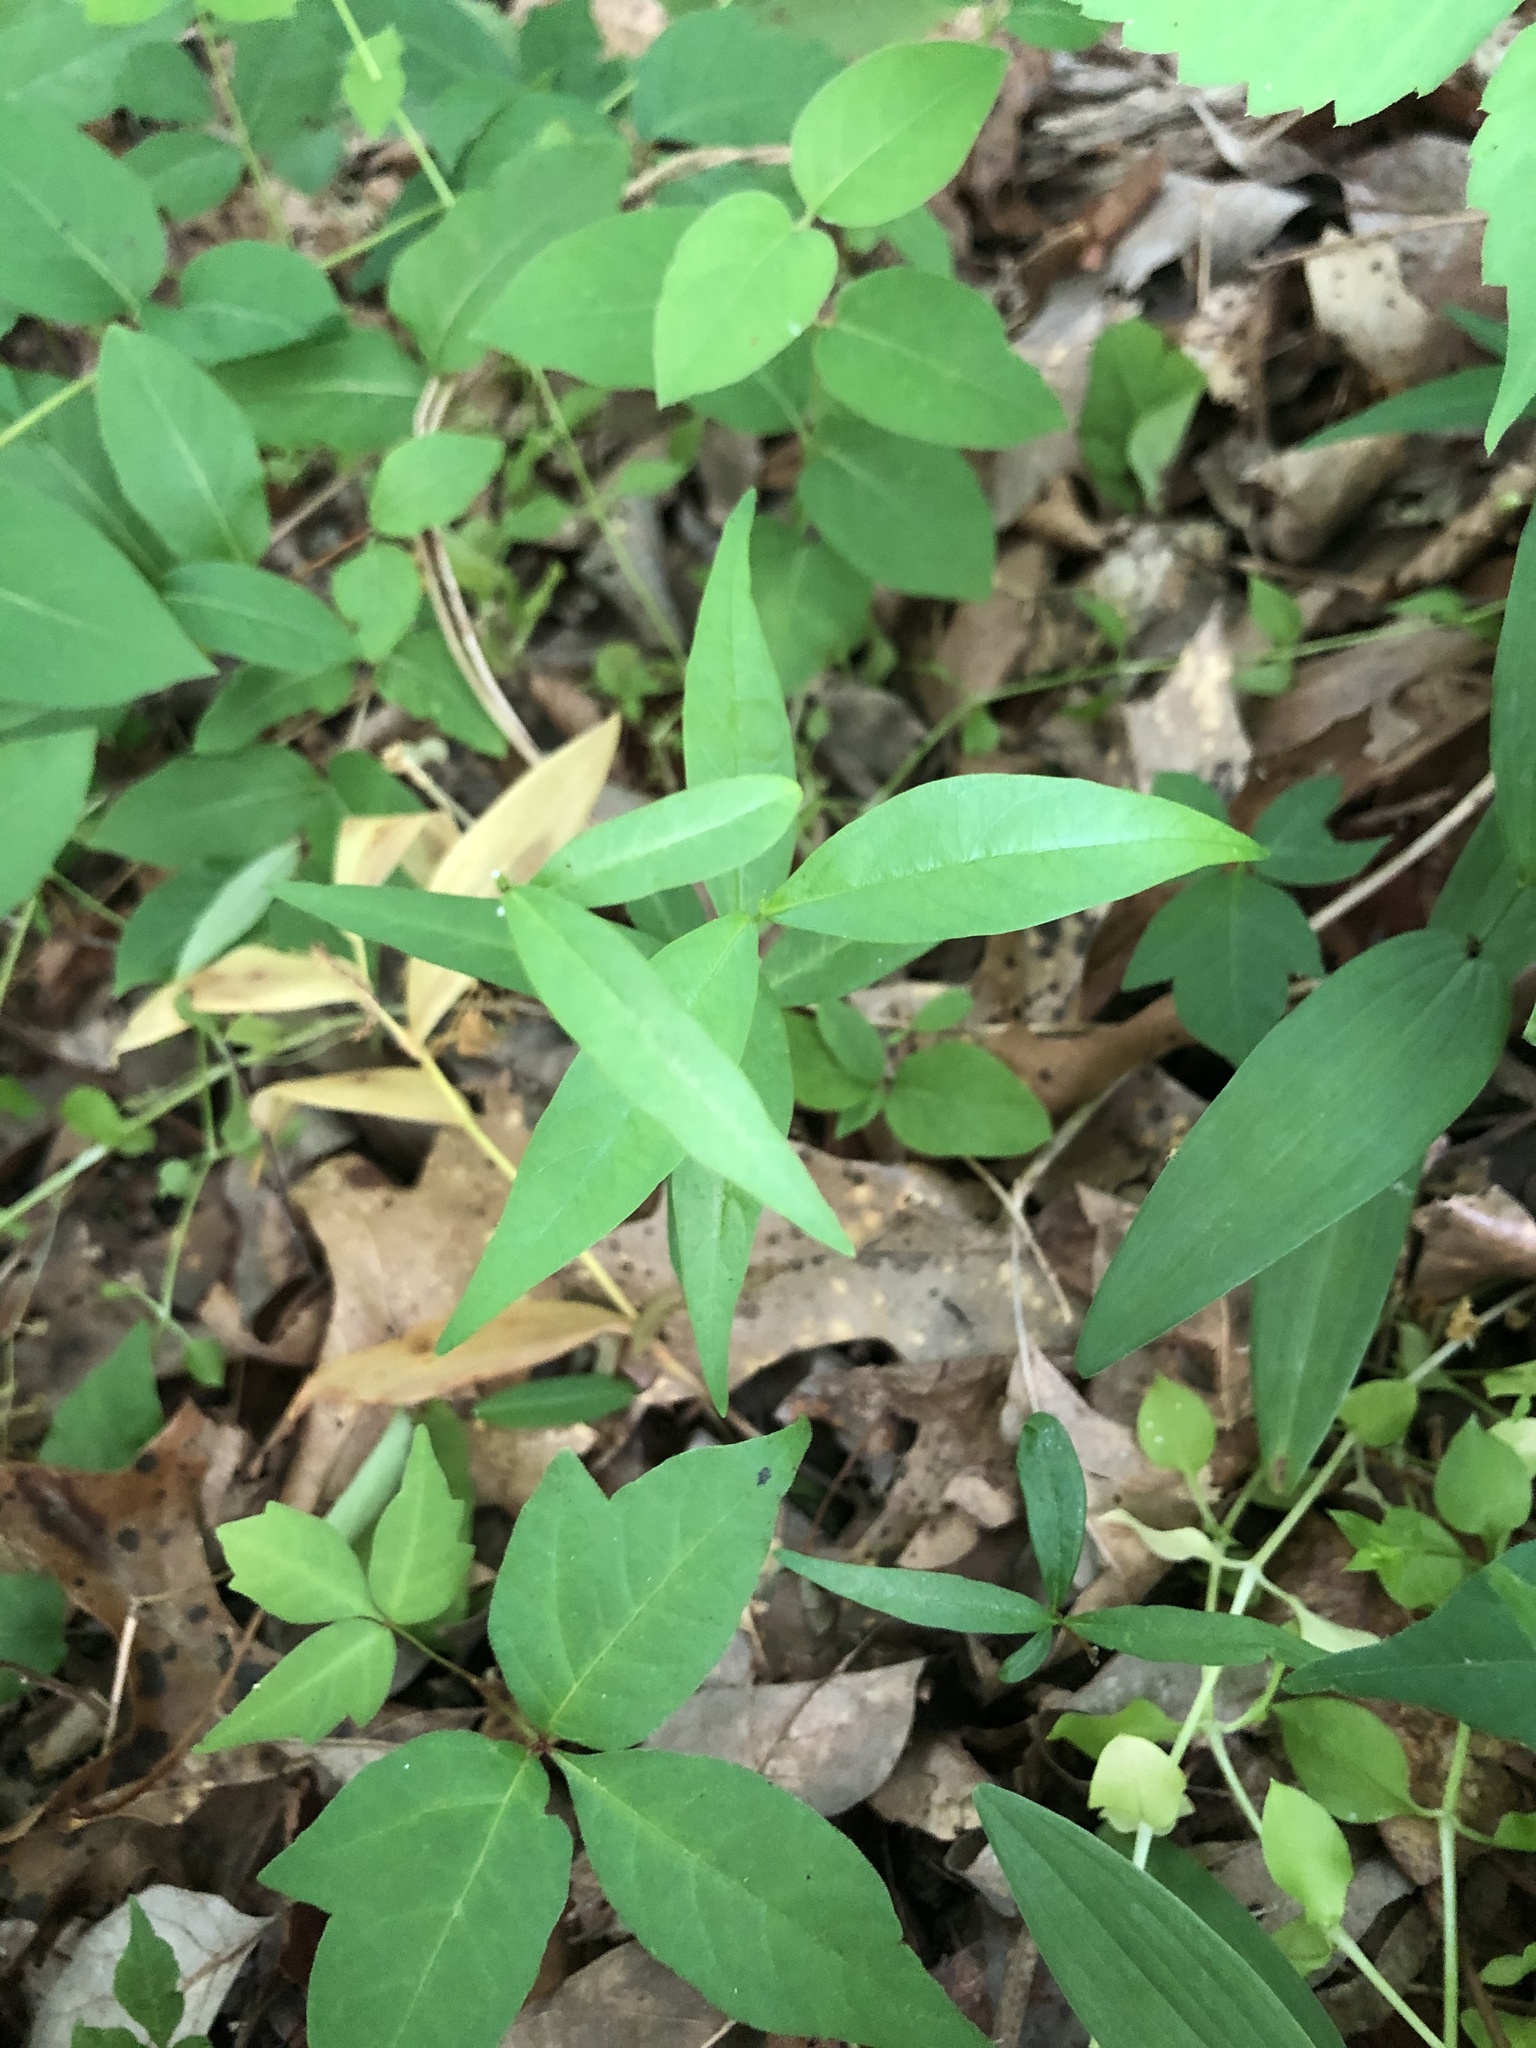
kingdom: Plantae
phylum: Tracheophyta
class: Magnoliopsida
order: Gentianales
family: Apocynaceae
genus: Thyrsanthella
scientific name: Thyrsanthella difformis
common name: Climbing dogbane
